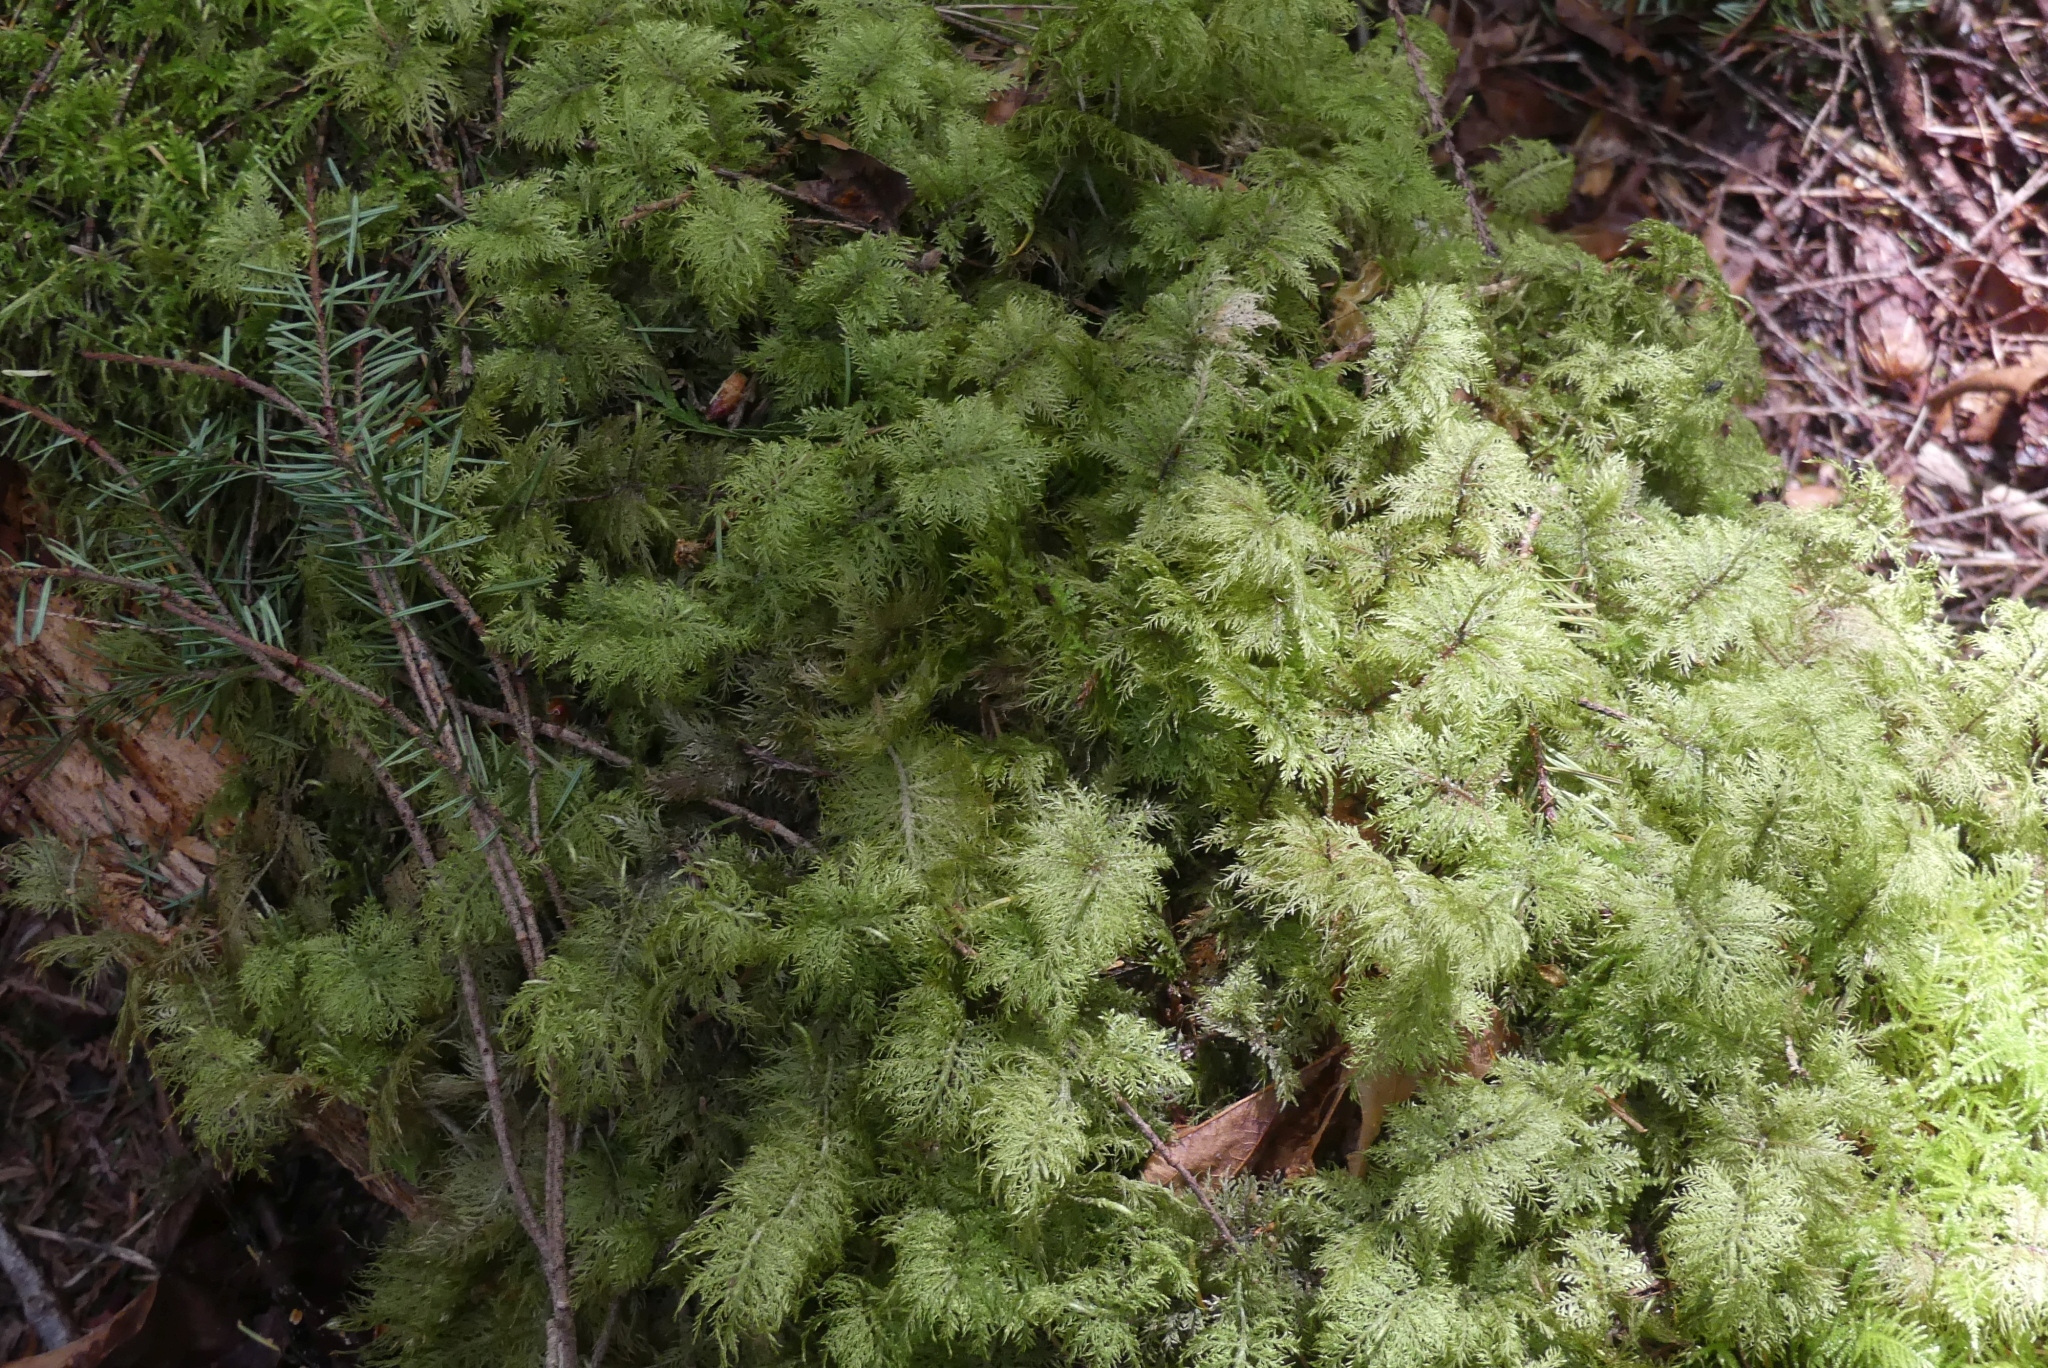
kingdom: Plantae
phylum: Bryophyta
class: Bryopsida
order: Hypnales
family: Hylocomiaceae
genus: Hylocomium
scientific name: Hylocomium splendens
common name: Stairstep moss
